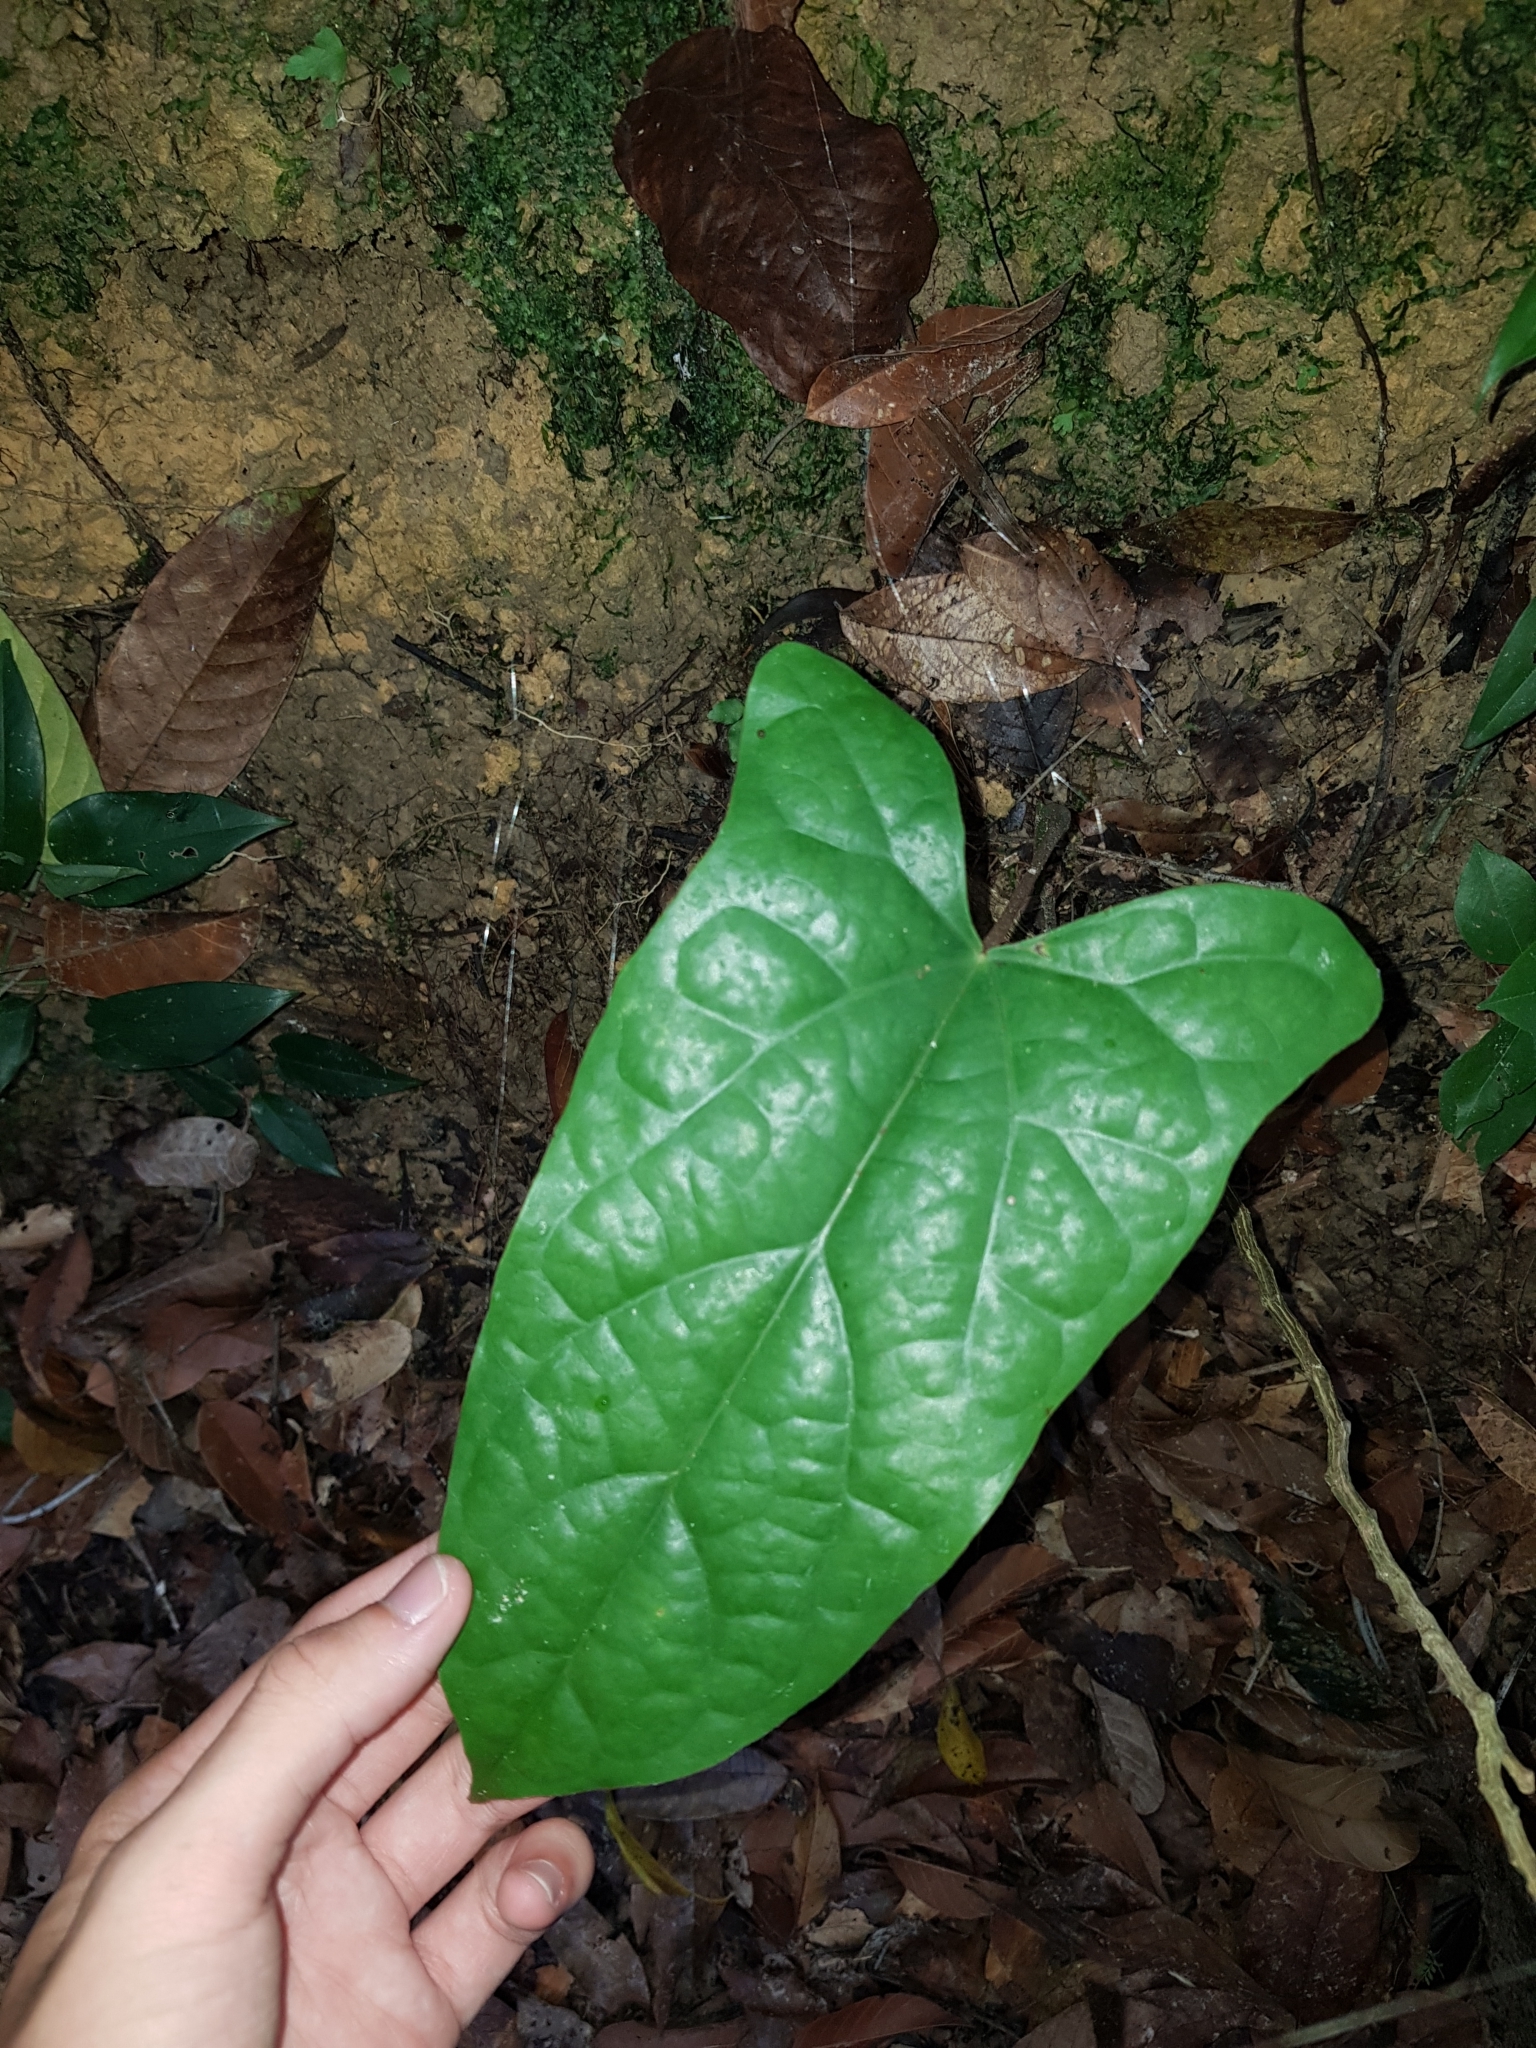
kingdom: Plantae
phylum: Tracheophyta
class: Magnoliopsida
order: Ranunculales
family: Menispermaceae
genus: Tinomiscium
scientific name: Tinomiscium petiolare
